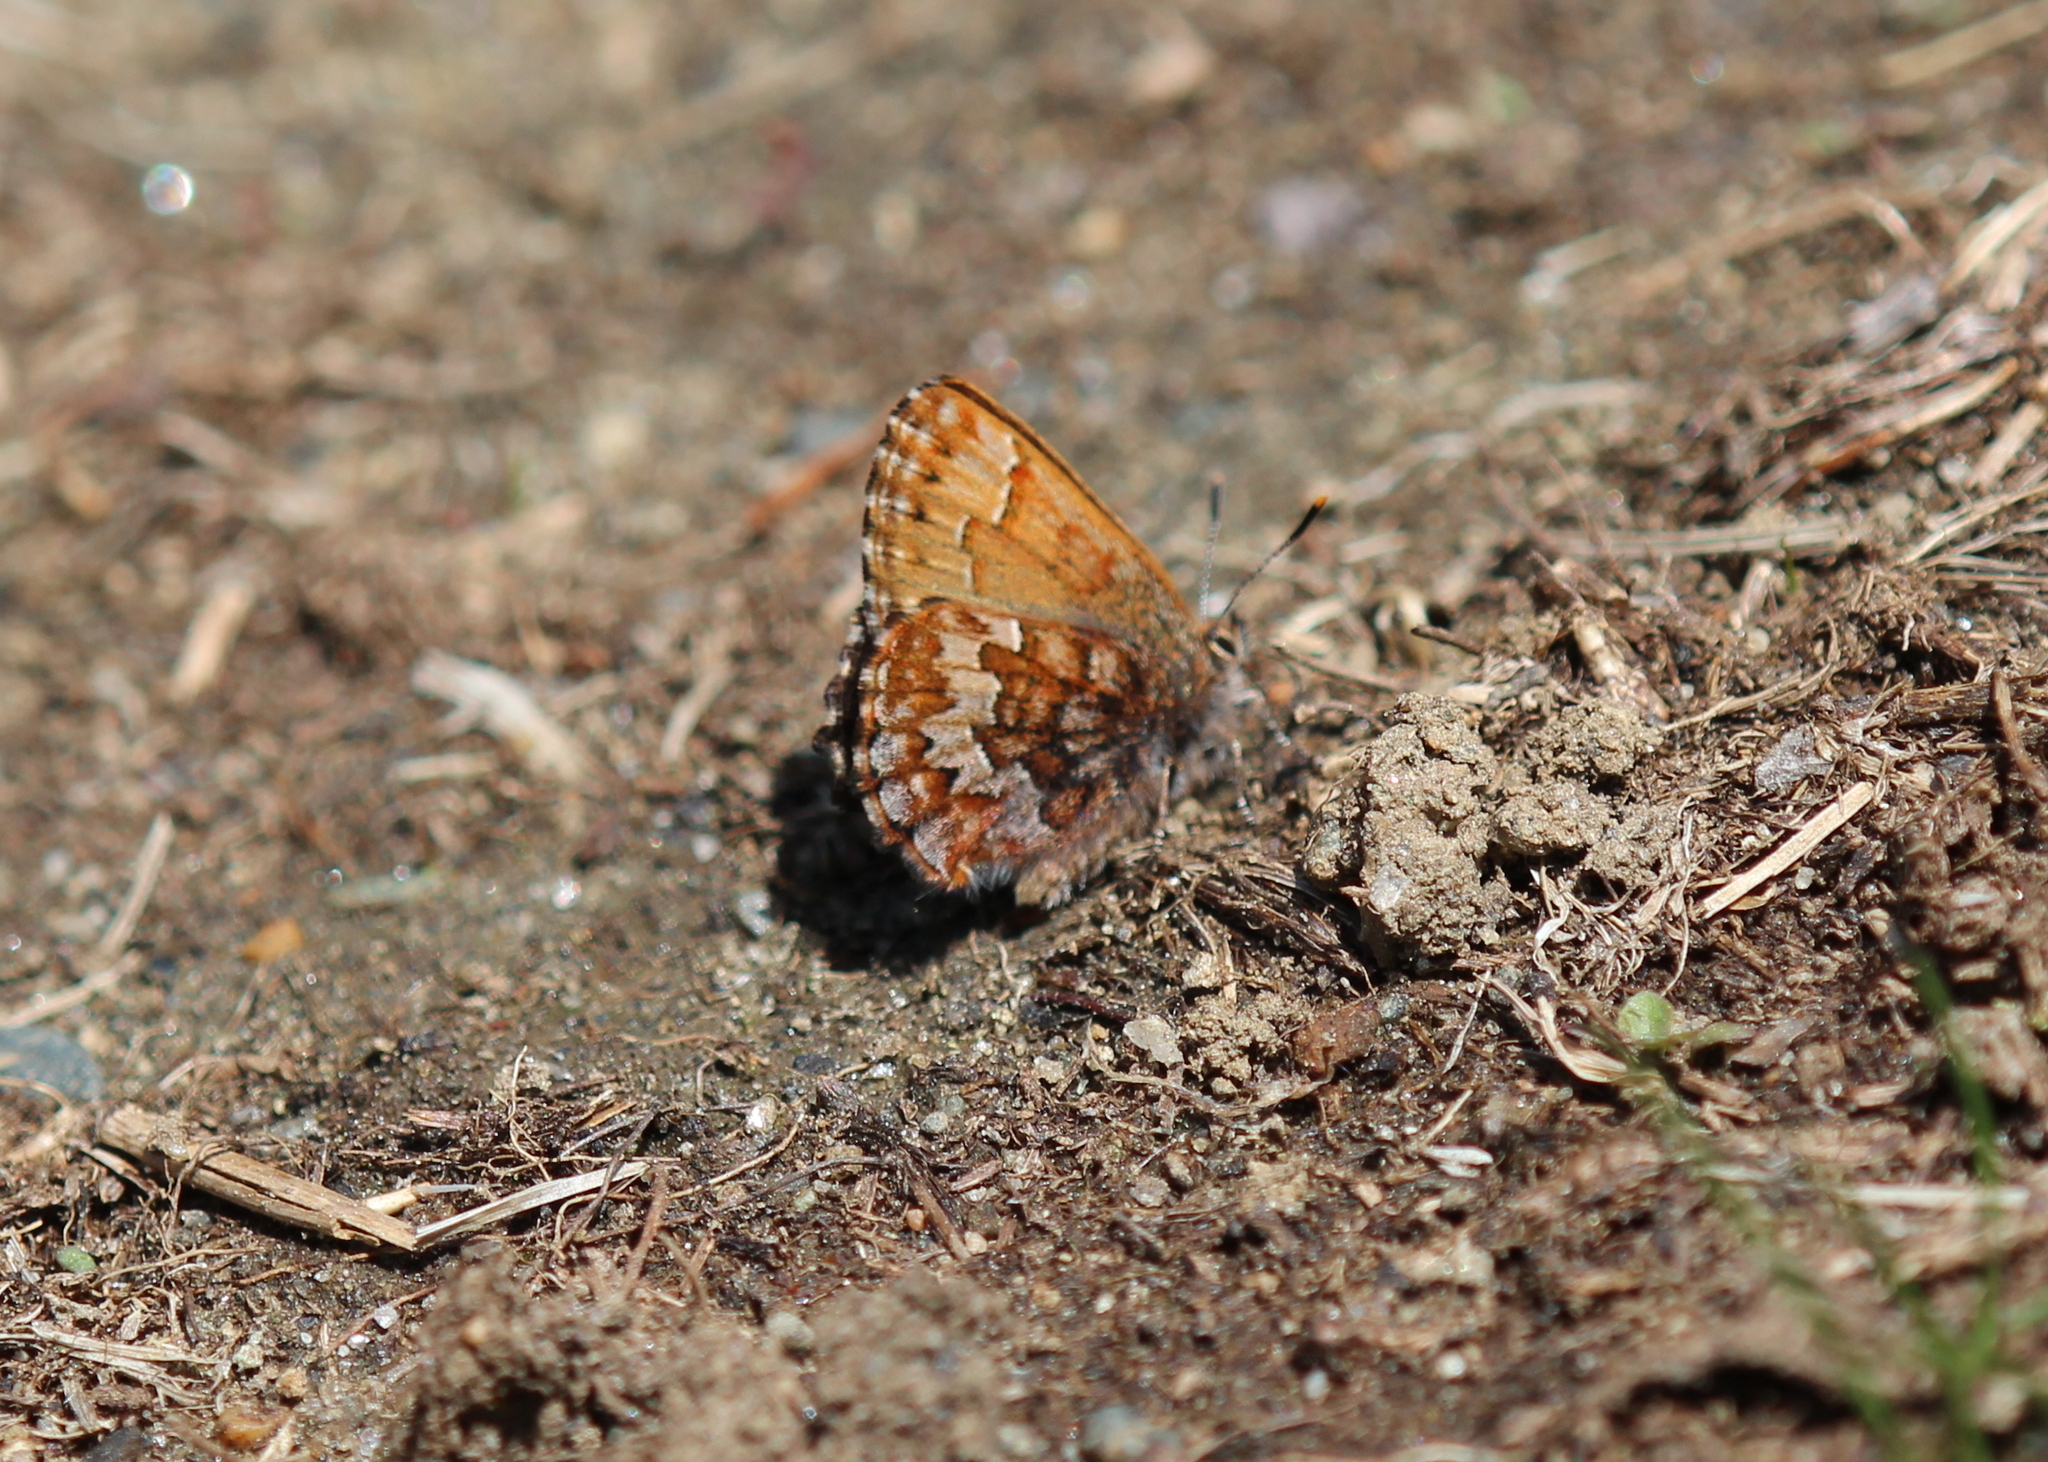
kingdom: Animalia
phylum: Arthropoda
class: Insecta
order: Lepidoptera
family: Lycaenidae
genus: Incisalia
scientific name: Incisalia niphon
